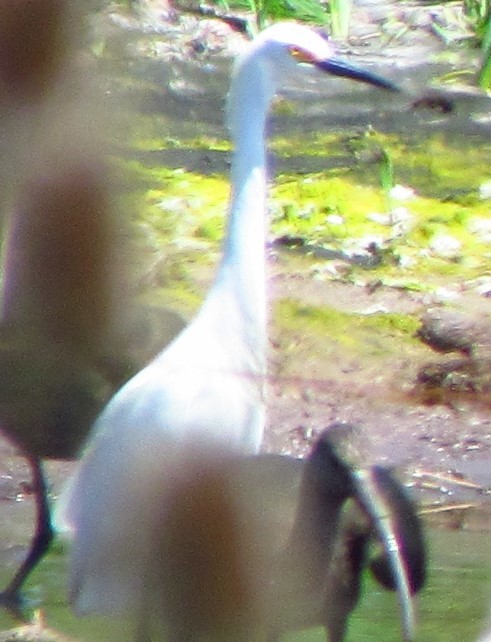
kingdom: Animalia
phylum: Chordata
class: Aves
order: Pelecaniformes
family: Ardeidae
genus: Egretta
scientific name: Egretta thula
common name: Snowy egret
